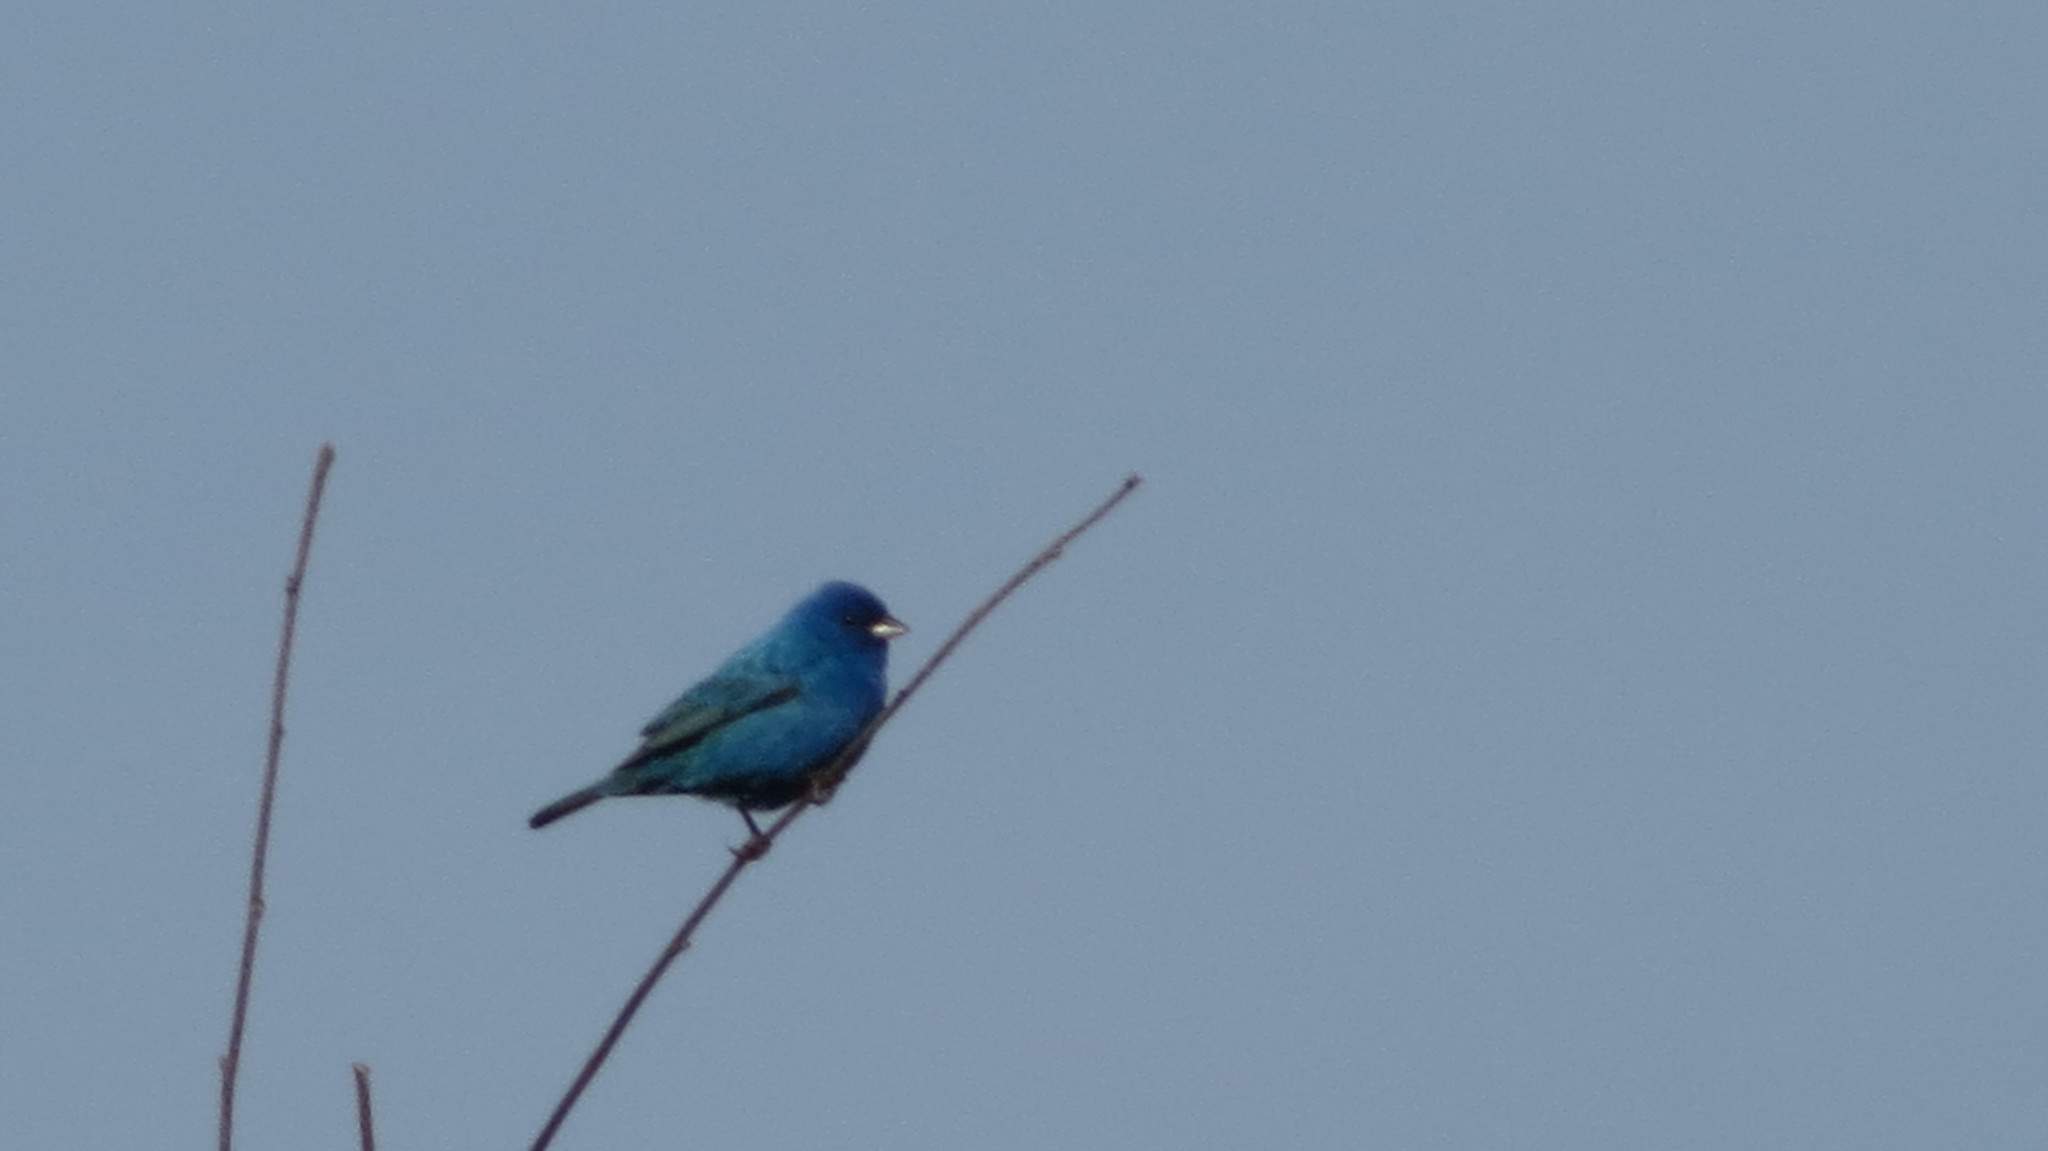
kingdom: Animalia
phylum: Chordata
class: Aves
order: Passeriformes
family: Cardinalidae
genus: Passerina
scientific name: Passerina cyanea
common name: Indigo bunting
